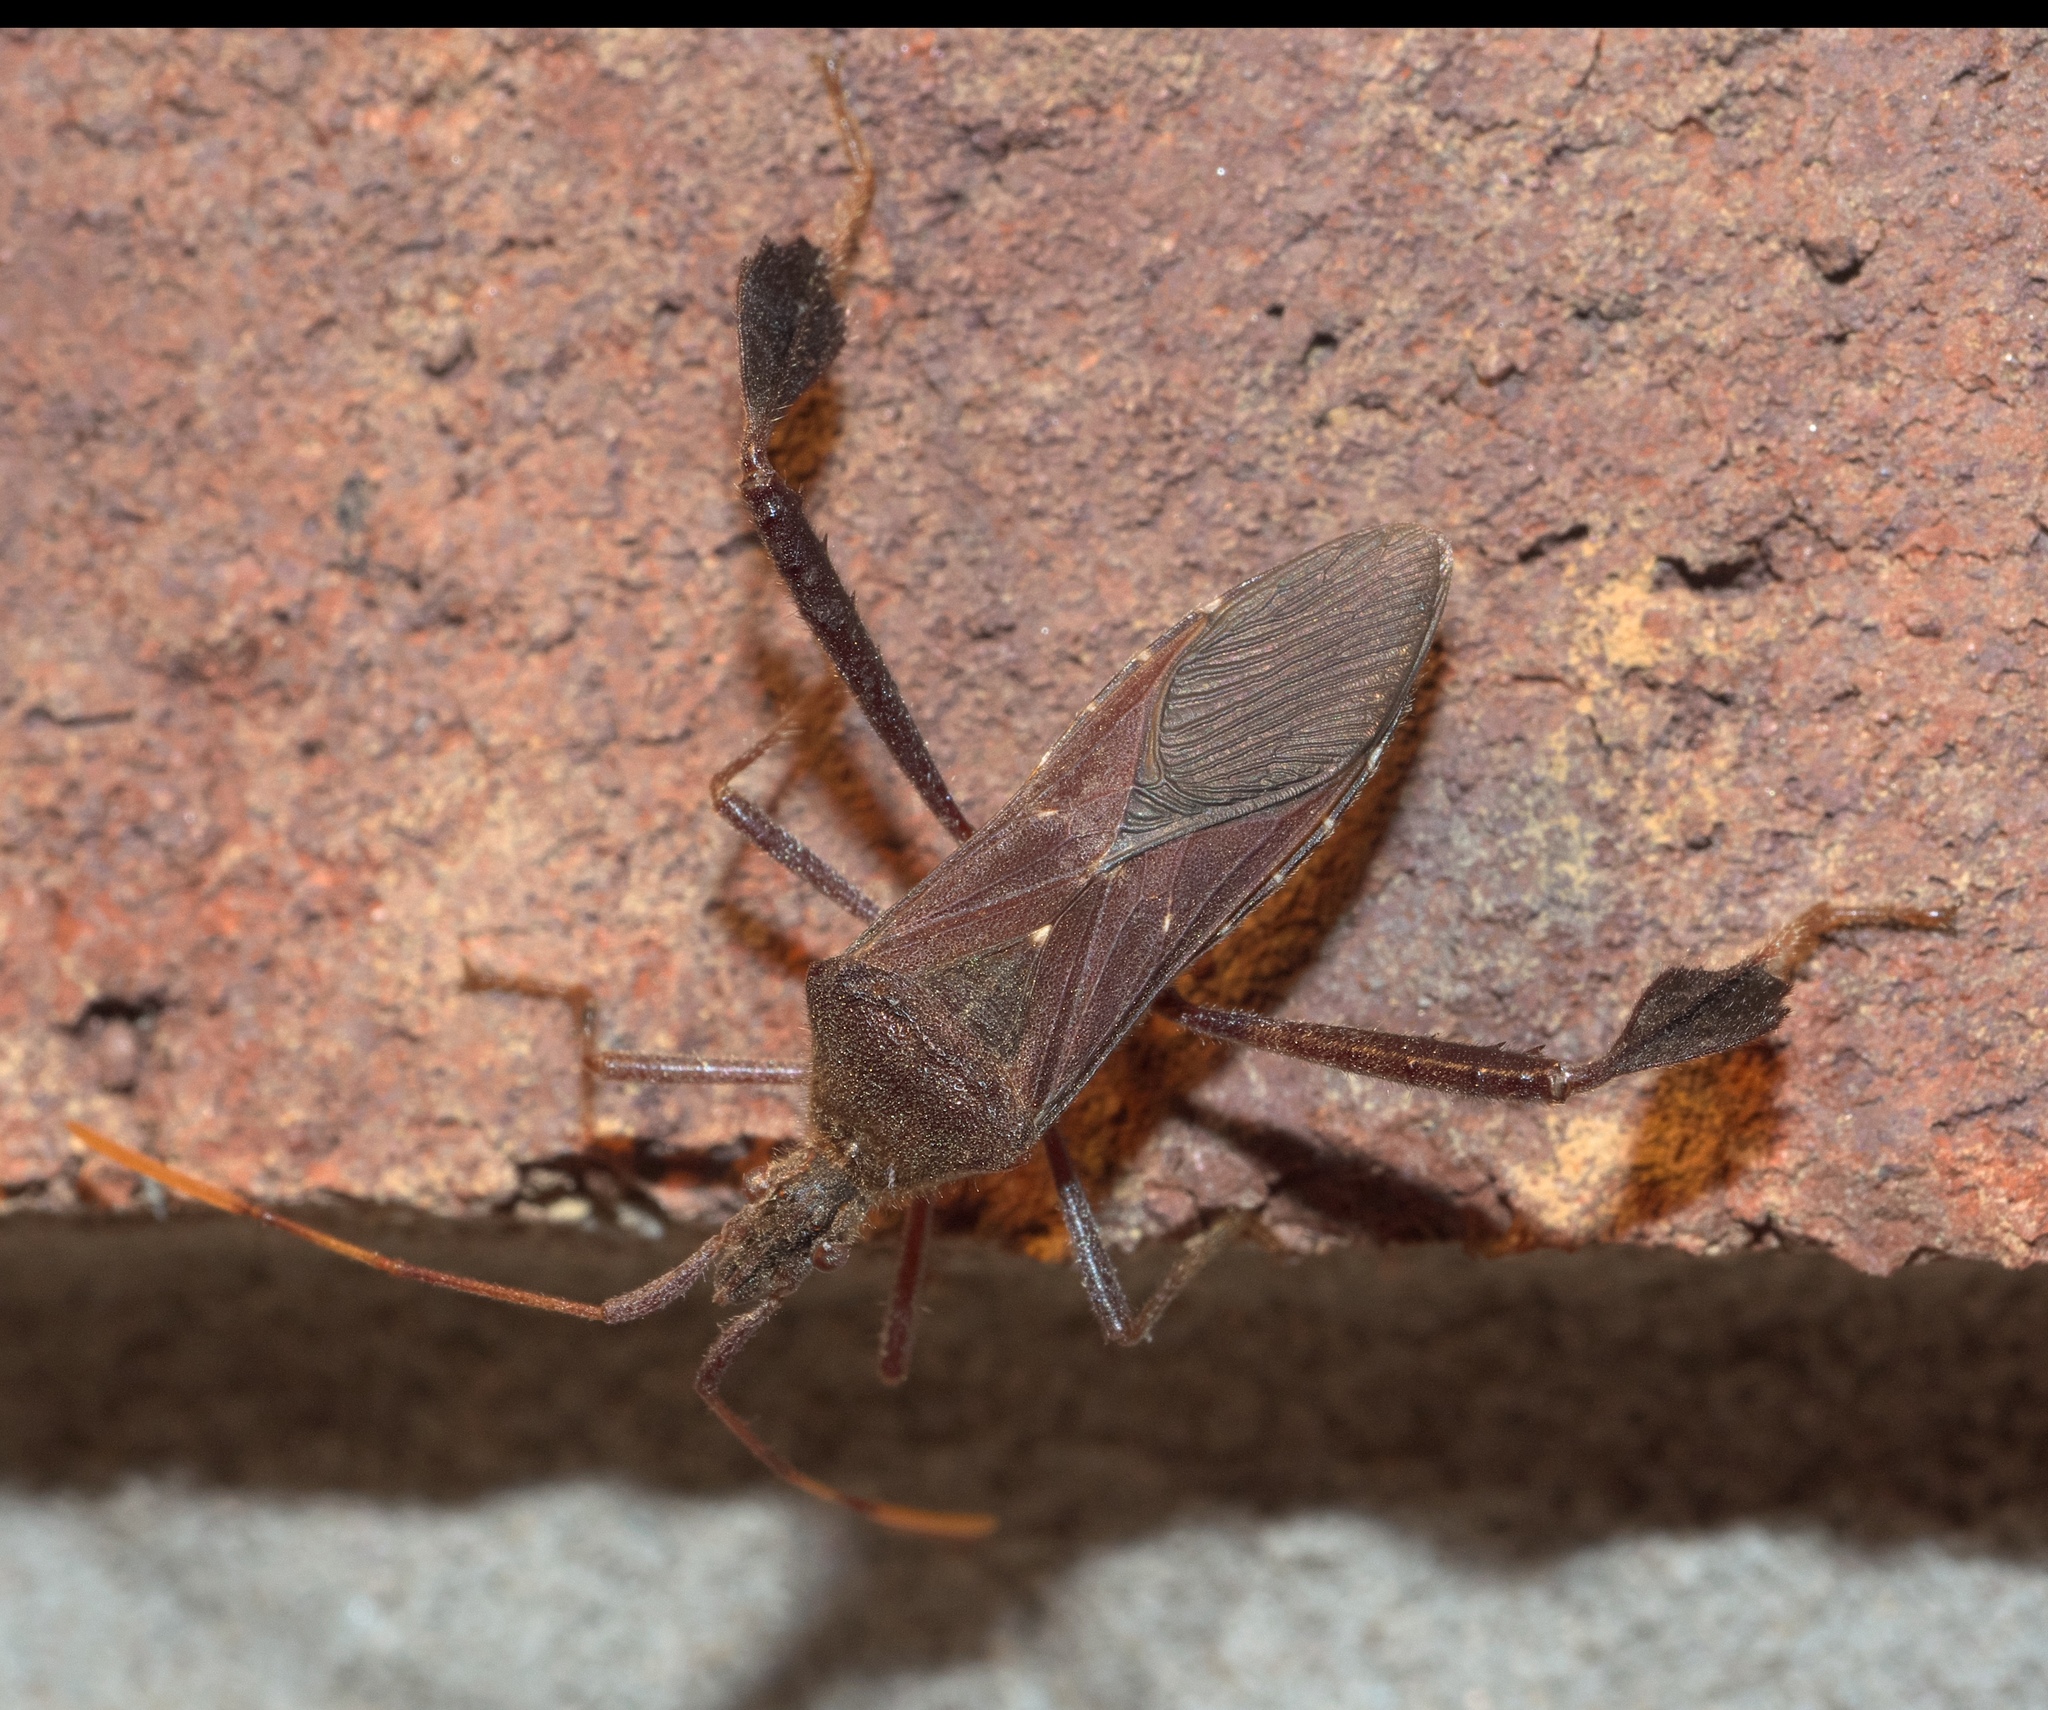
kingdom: Animalia
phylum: Arthropoda
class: Insecta
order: Hemiptera
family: Coreidae
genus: Leptoglossus
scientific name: Leptoglossus oppositus
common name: Northern leaf-footed bug
